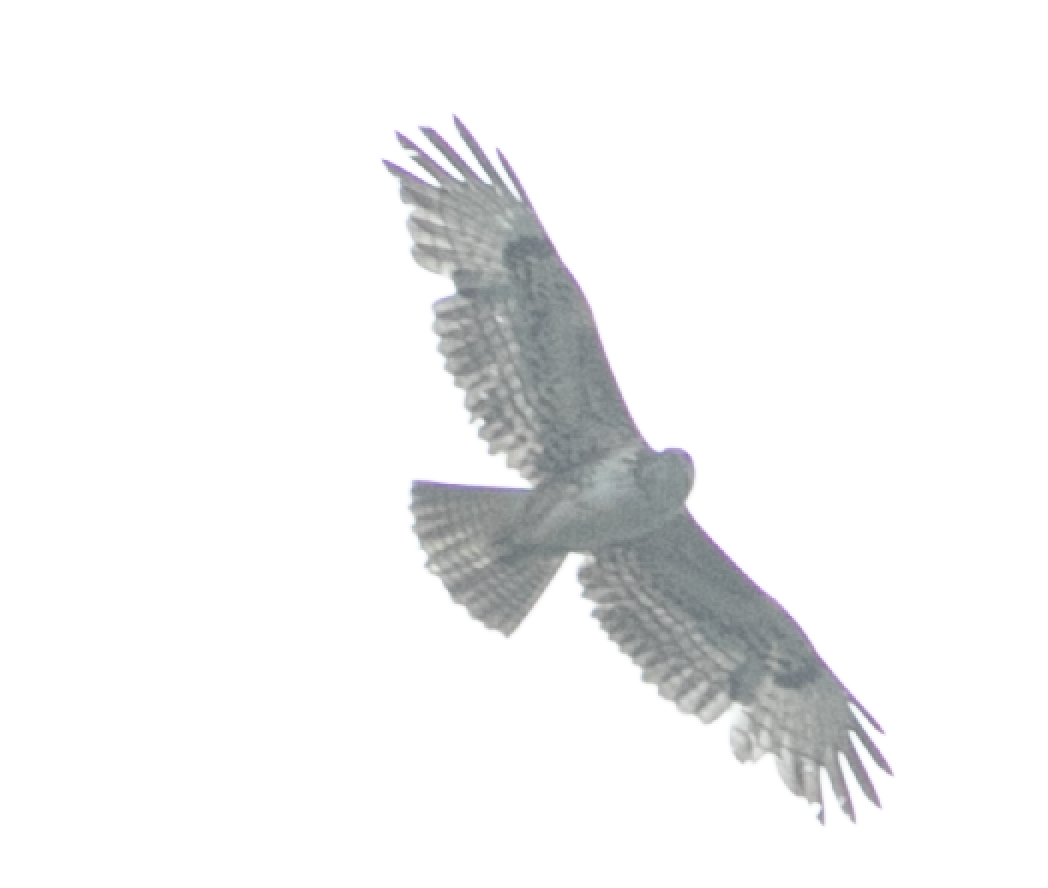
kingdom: Animalia
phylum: Chordata
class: Aves
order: Accipitriformes
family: Accipitridae
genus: Buteo
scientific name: Buteo buteo
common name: Common buzzard
